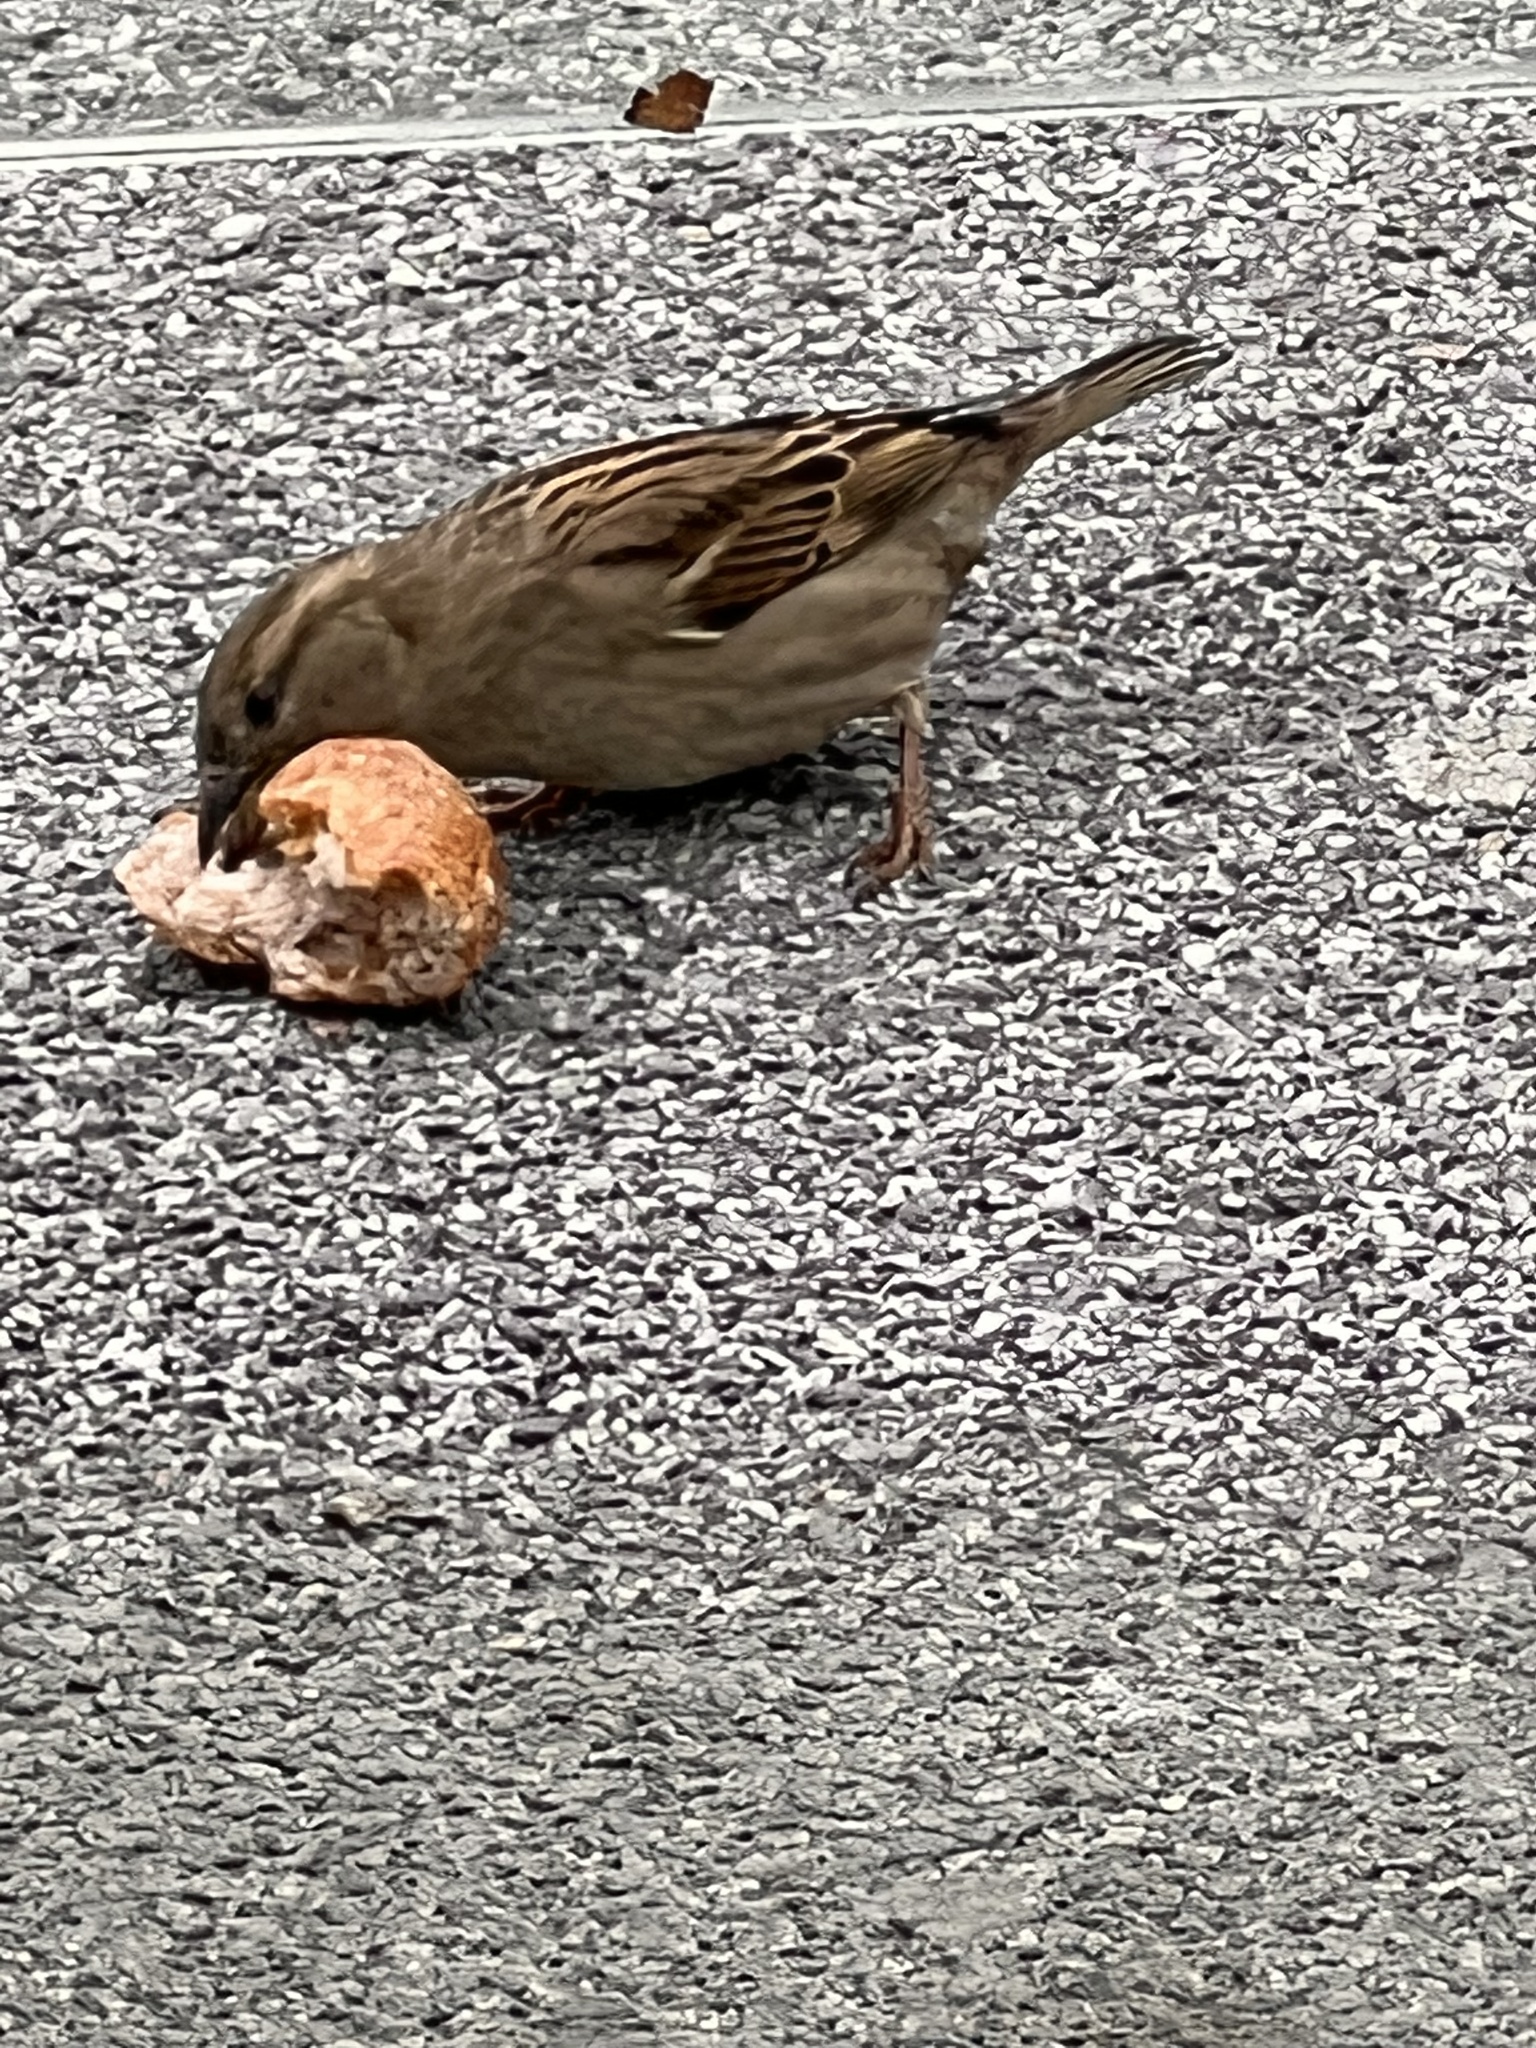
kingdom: Animalia
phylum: Chordata
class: Aves
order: Passeriformes
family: Passeridae
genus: Passer
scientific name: Passer domesticus
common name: House sparrow
